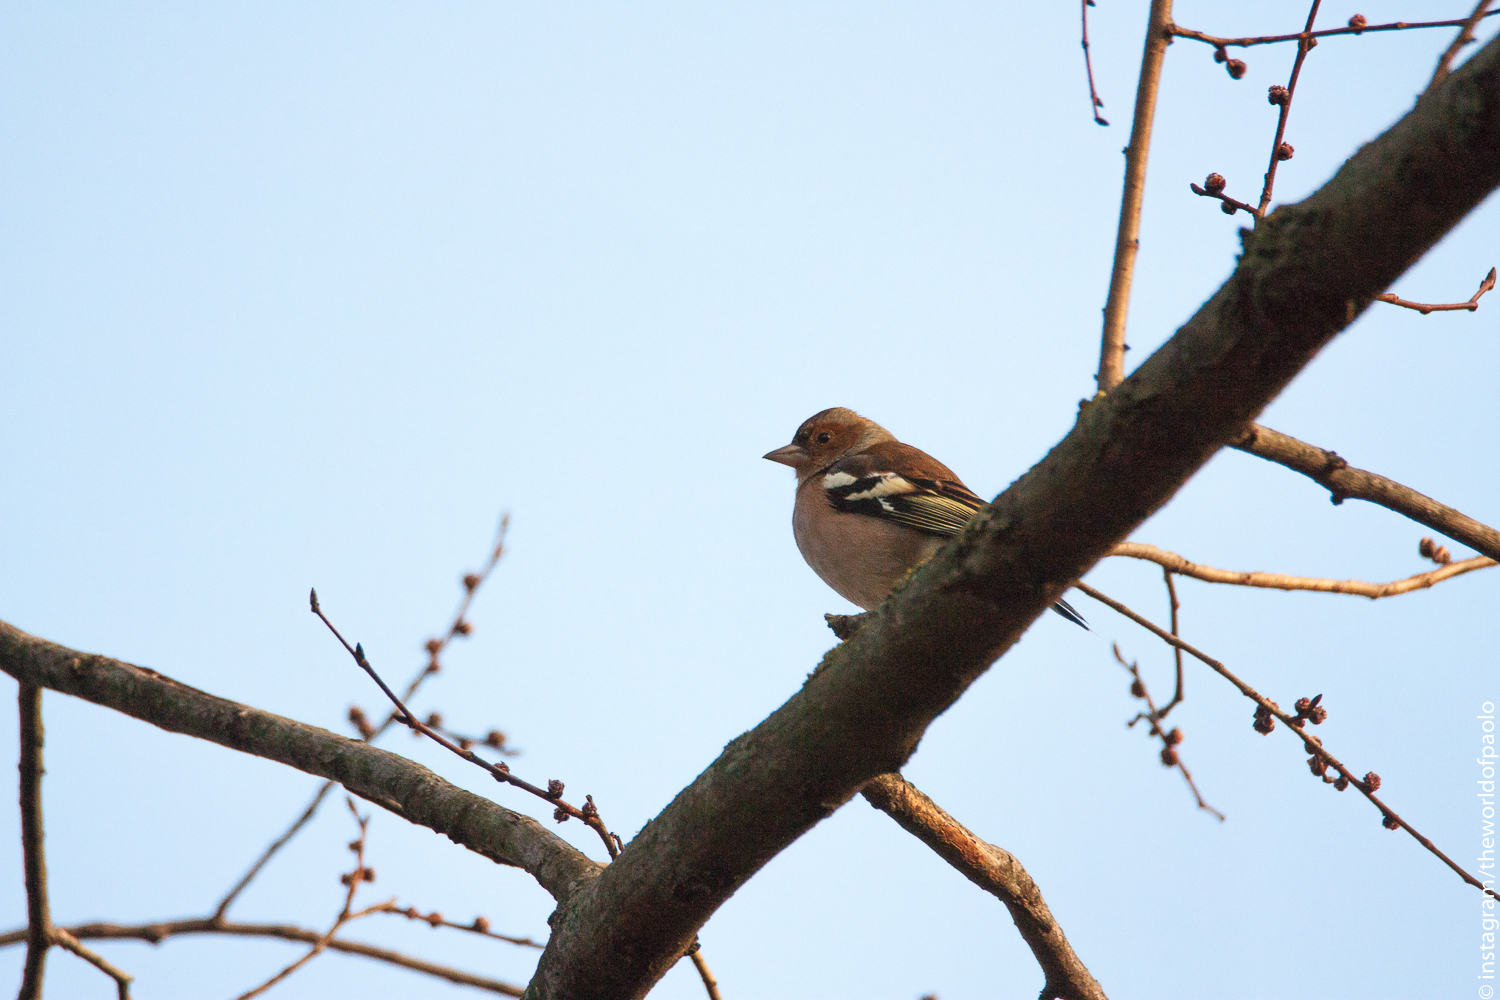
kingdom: Animalia
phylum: Chordata
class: Aves
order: Passeriformes
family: Fringillidae
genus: Fringilla
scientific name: Fringilla coelebs
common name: Common chaffinch
